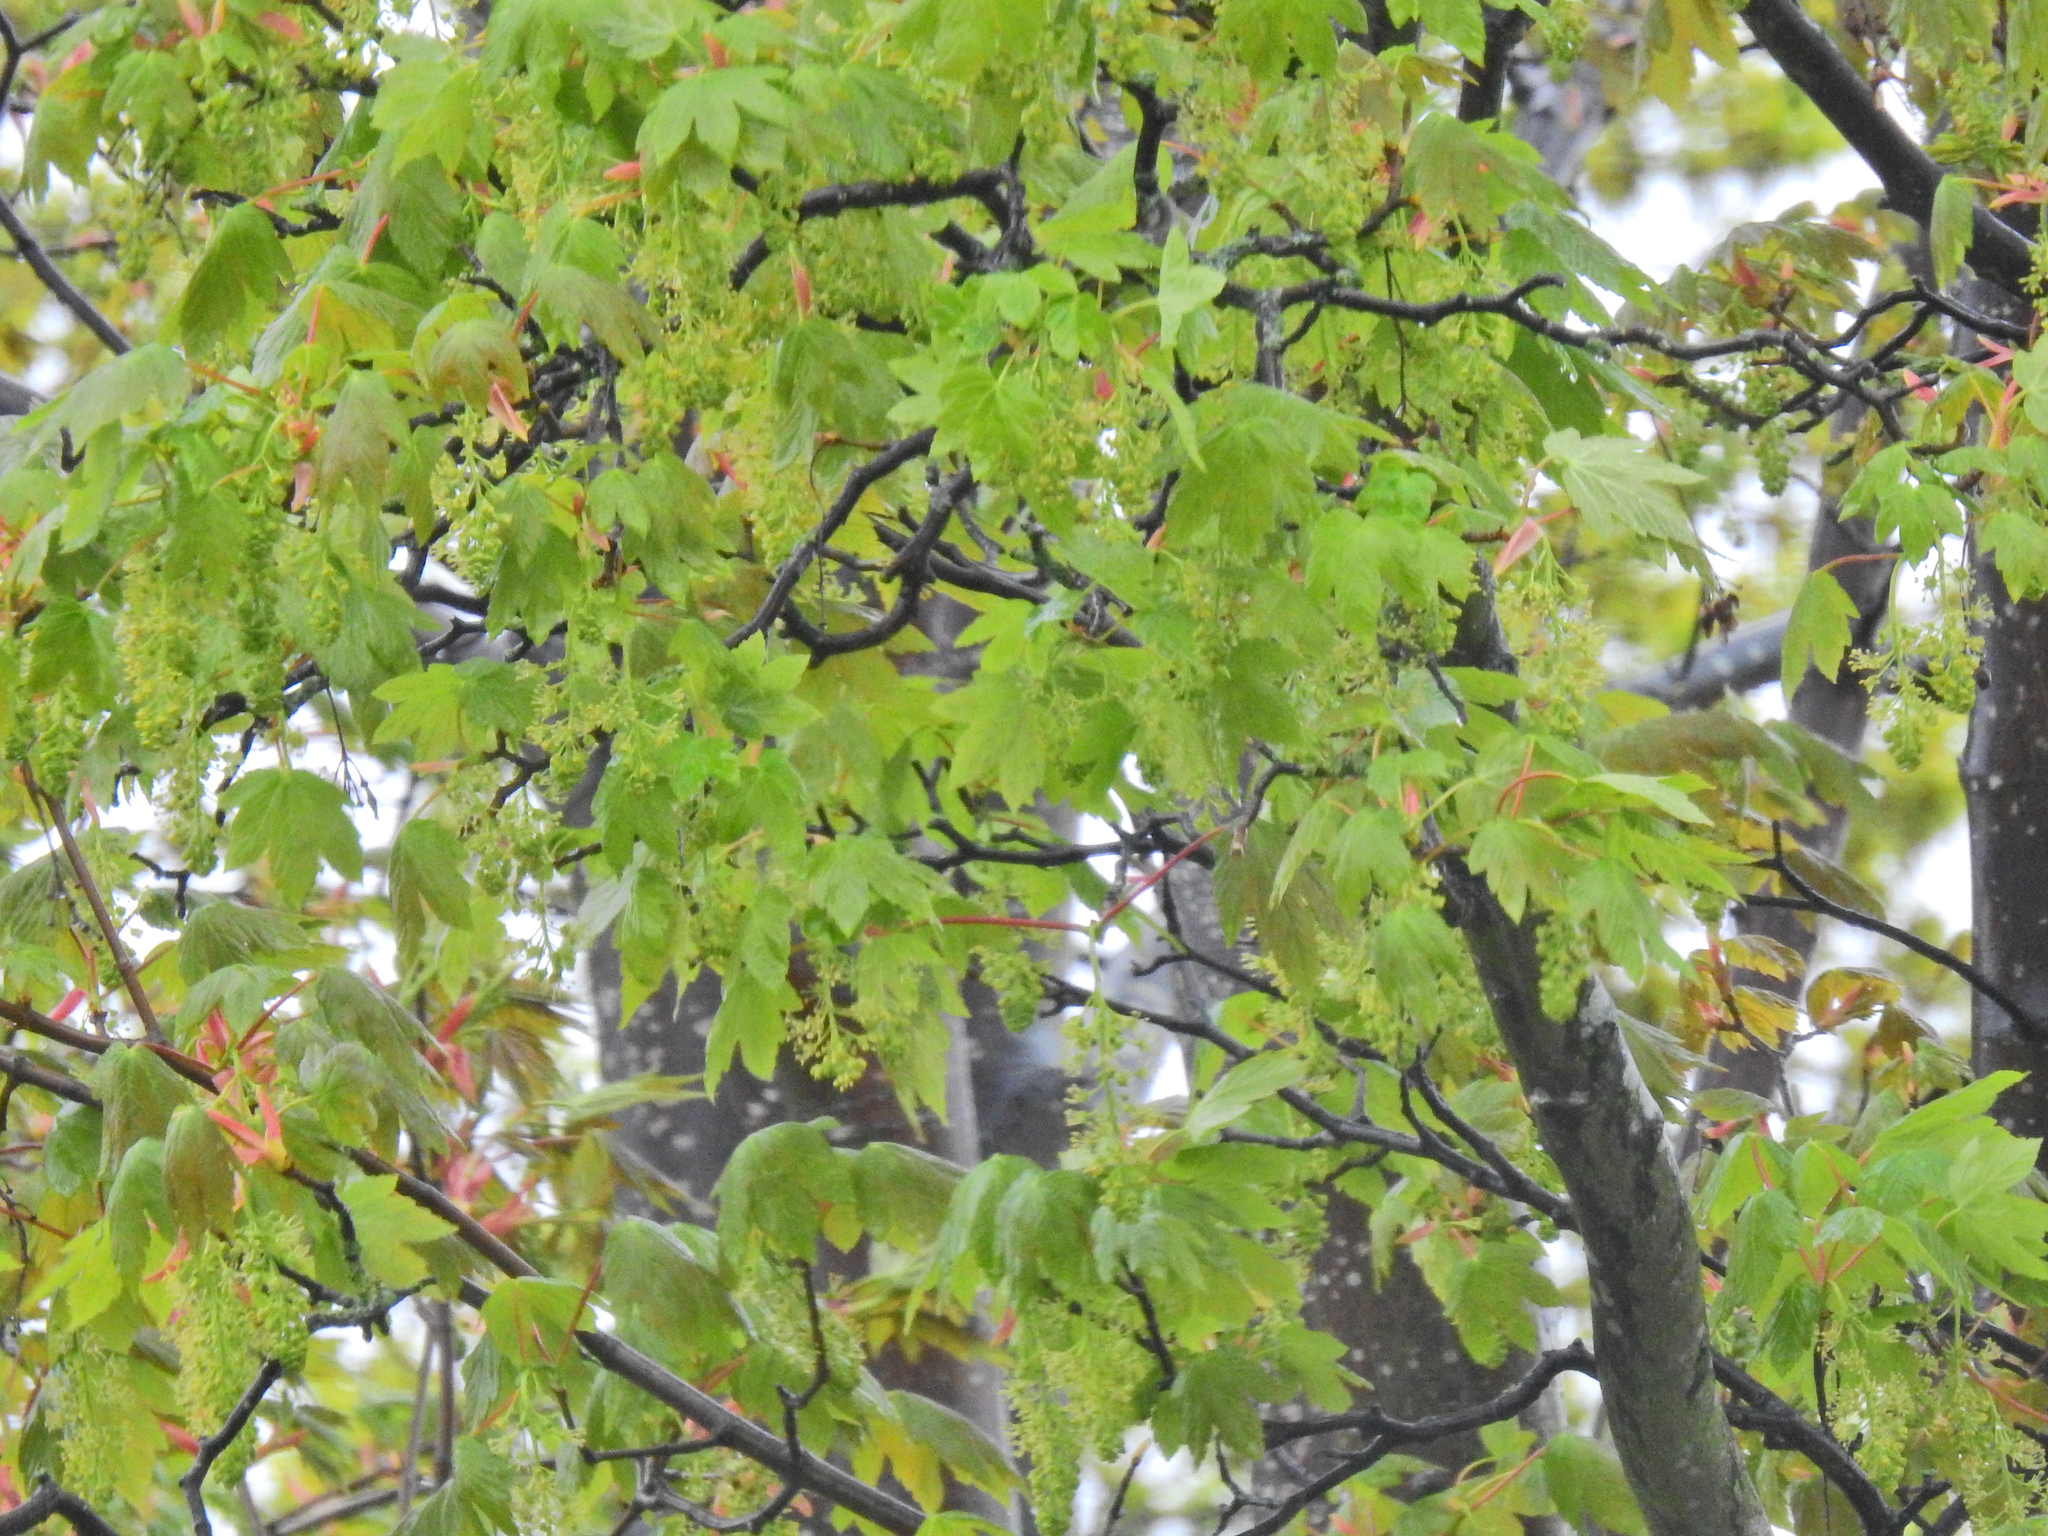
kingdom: Plantae
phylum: Tracheophyta
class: Magnoliopsida
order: Sapindales
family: Sapindaceae
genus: Acer
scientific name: Acer pseudoplatanus
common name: Sycamore
